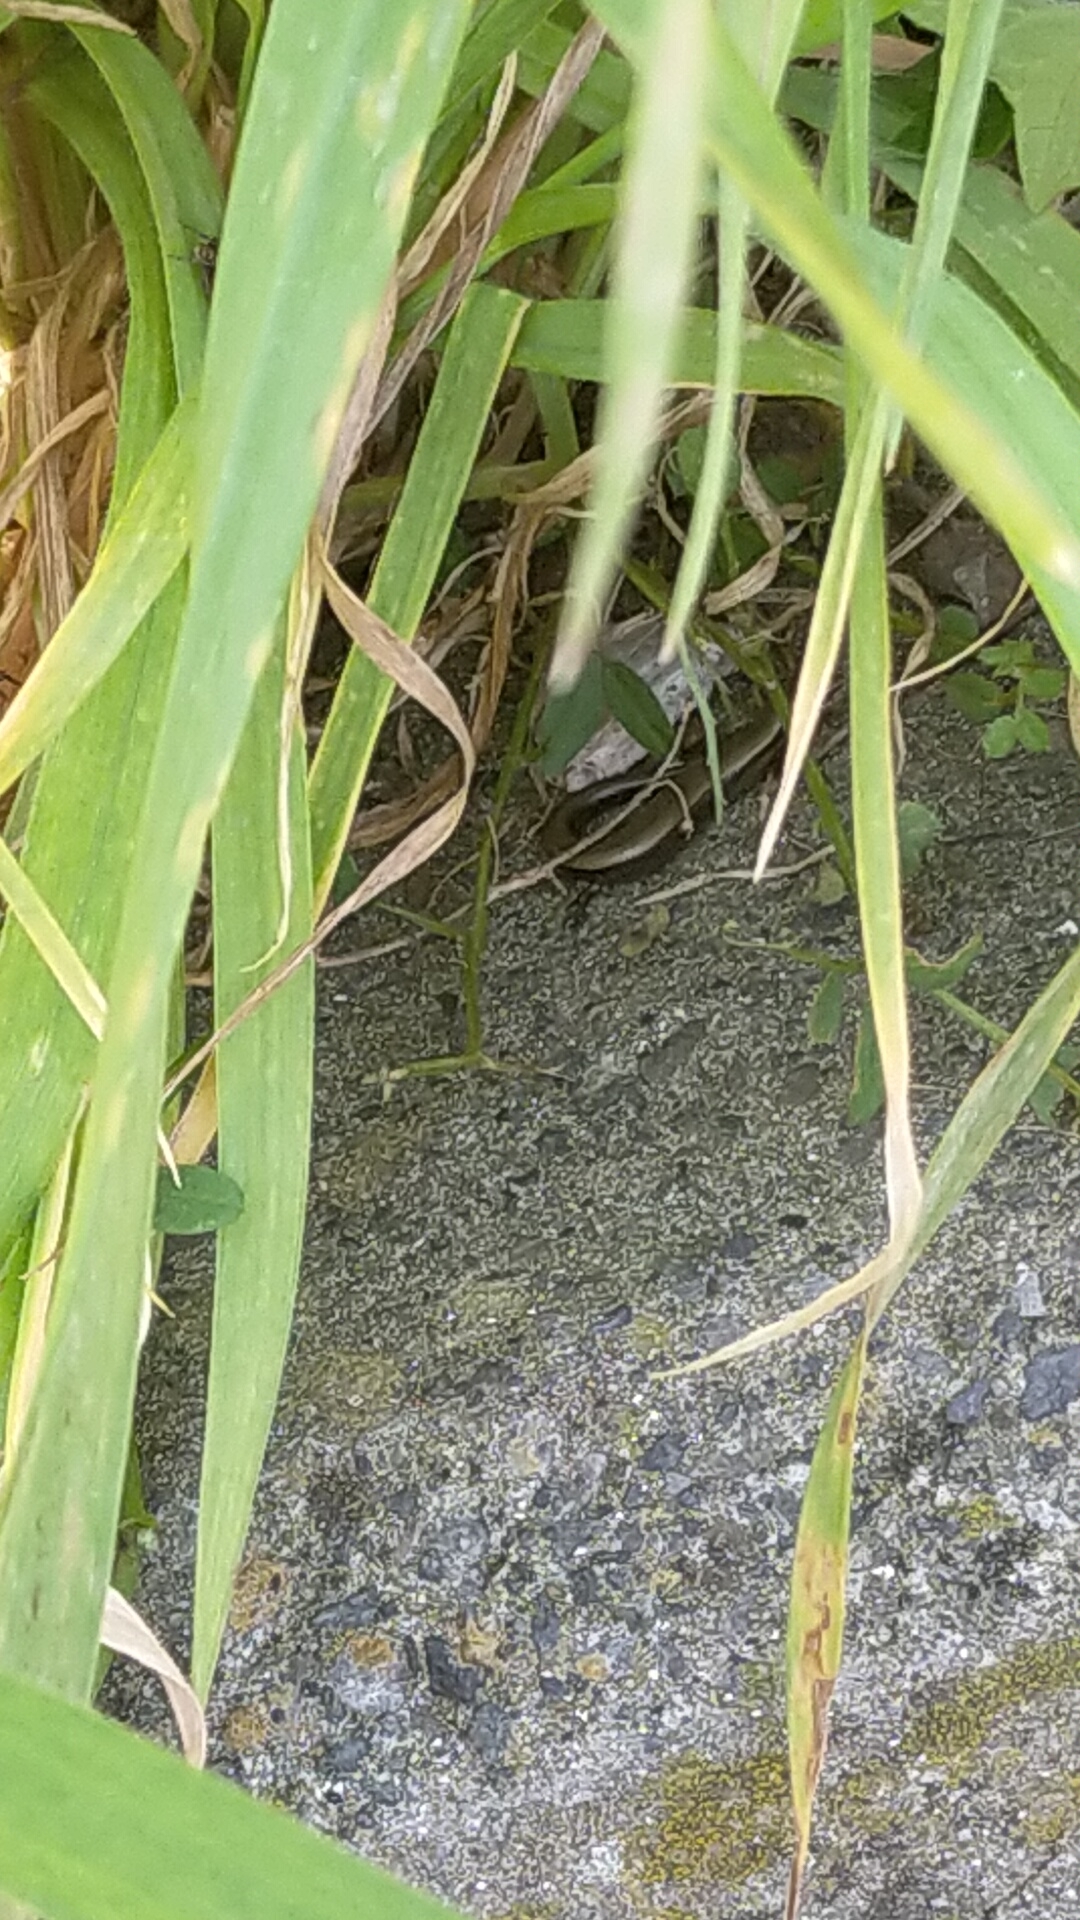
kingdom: Animalia
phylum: Chordata
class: Squamata
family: Scincidae
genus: Ablepharus
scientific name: Ablepharus kitaibelii
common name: Juniper skink
